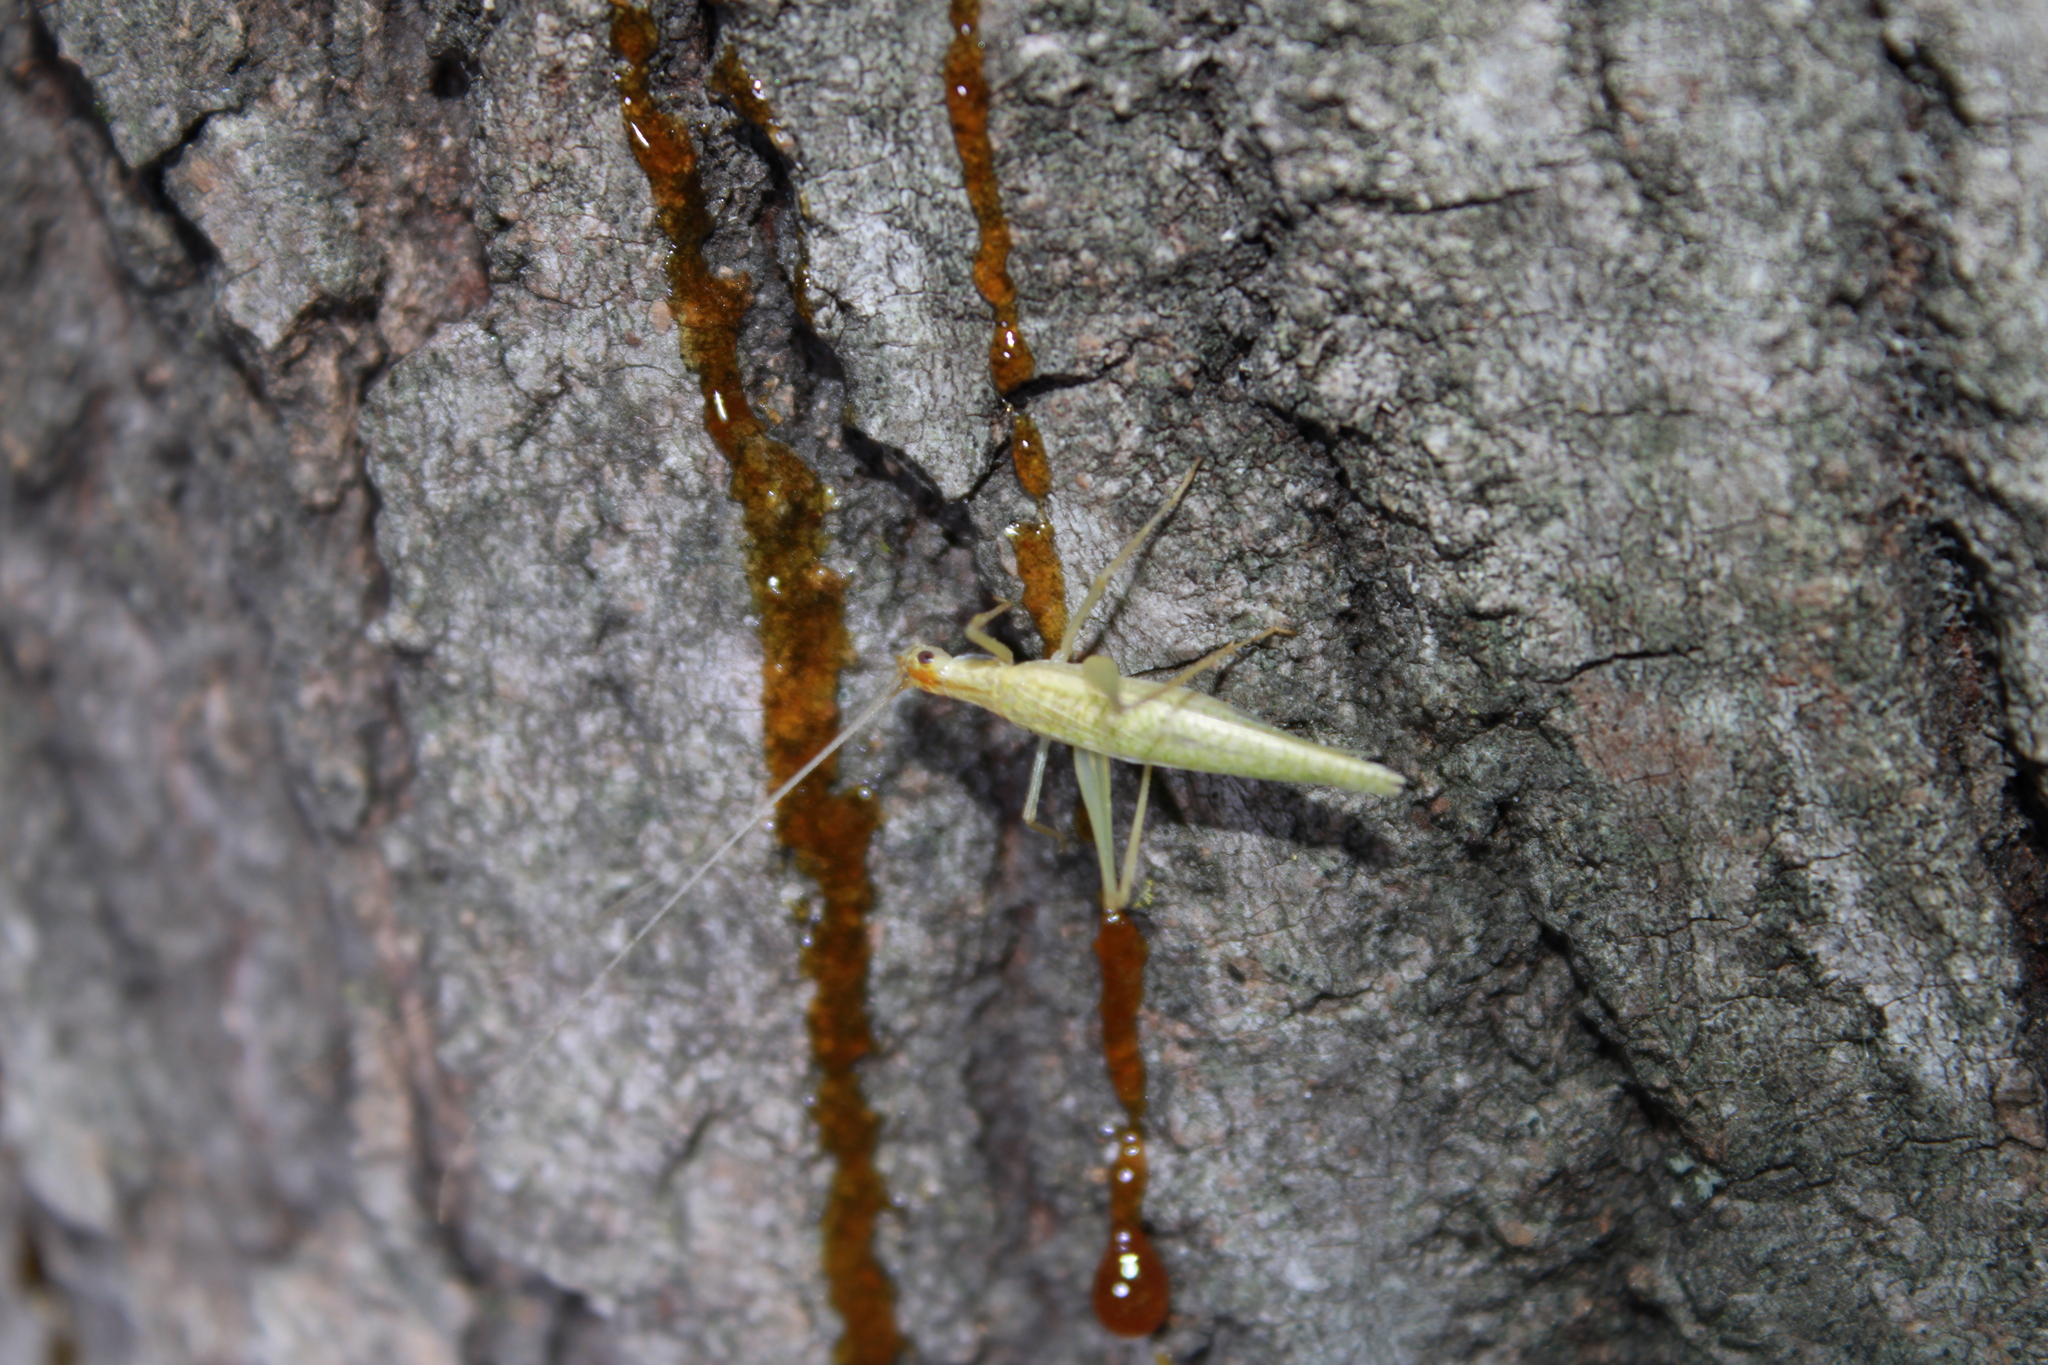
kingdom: Animalia
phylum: Arthropoda
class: Insecta
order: Orthoptera
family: Gryllidae
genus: Oecanthus
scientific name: Oecanthus niveus
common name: Narrow-winged tree cricket
